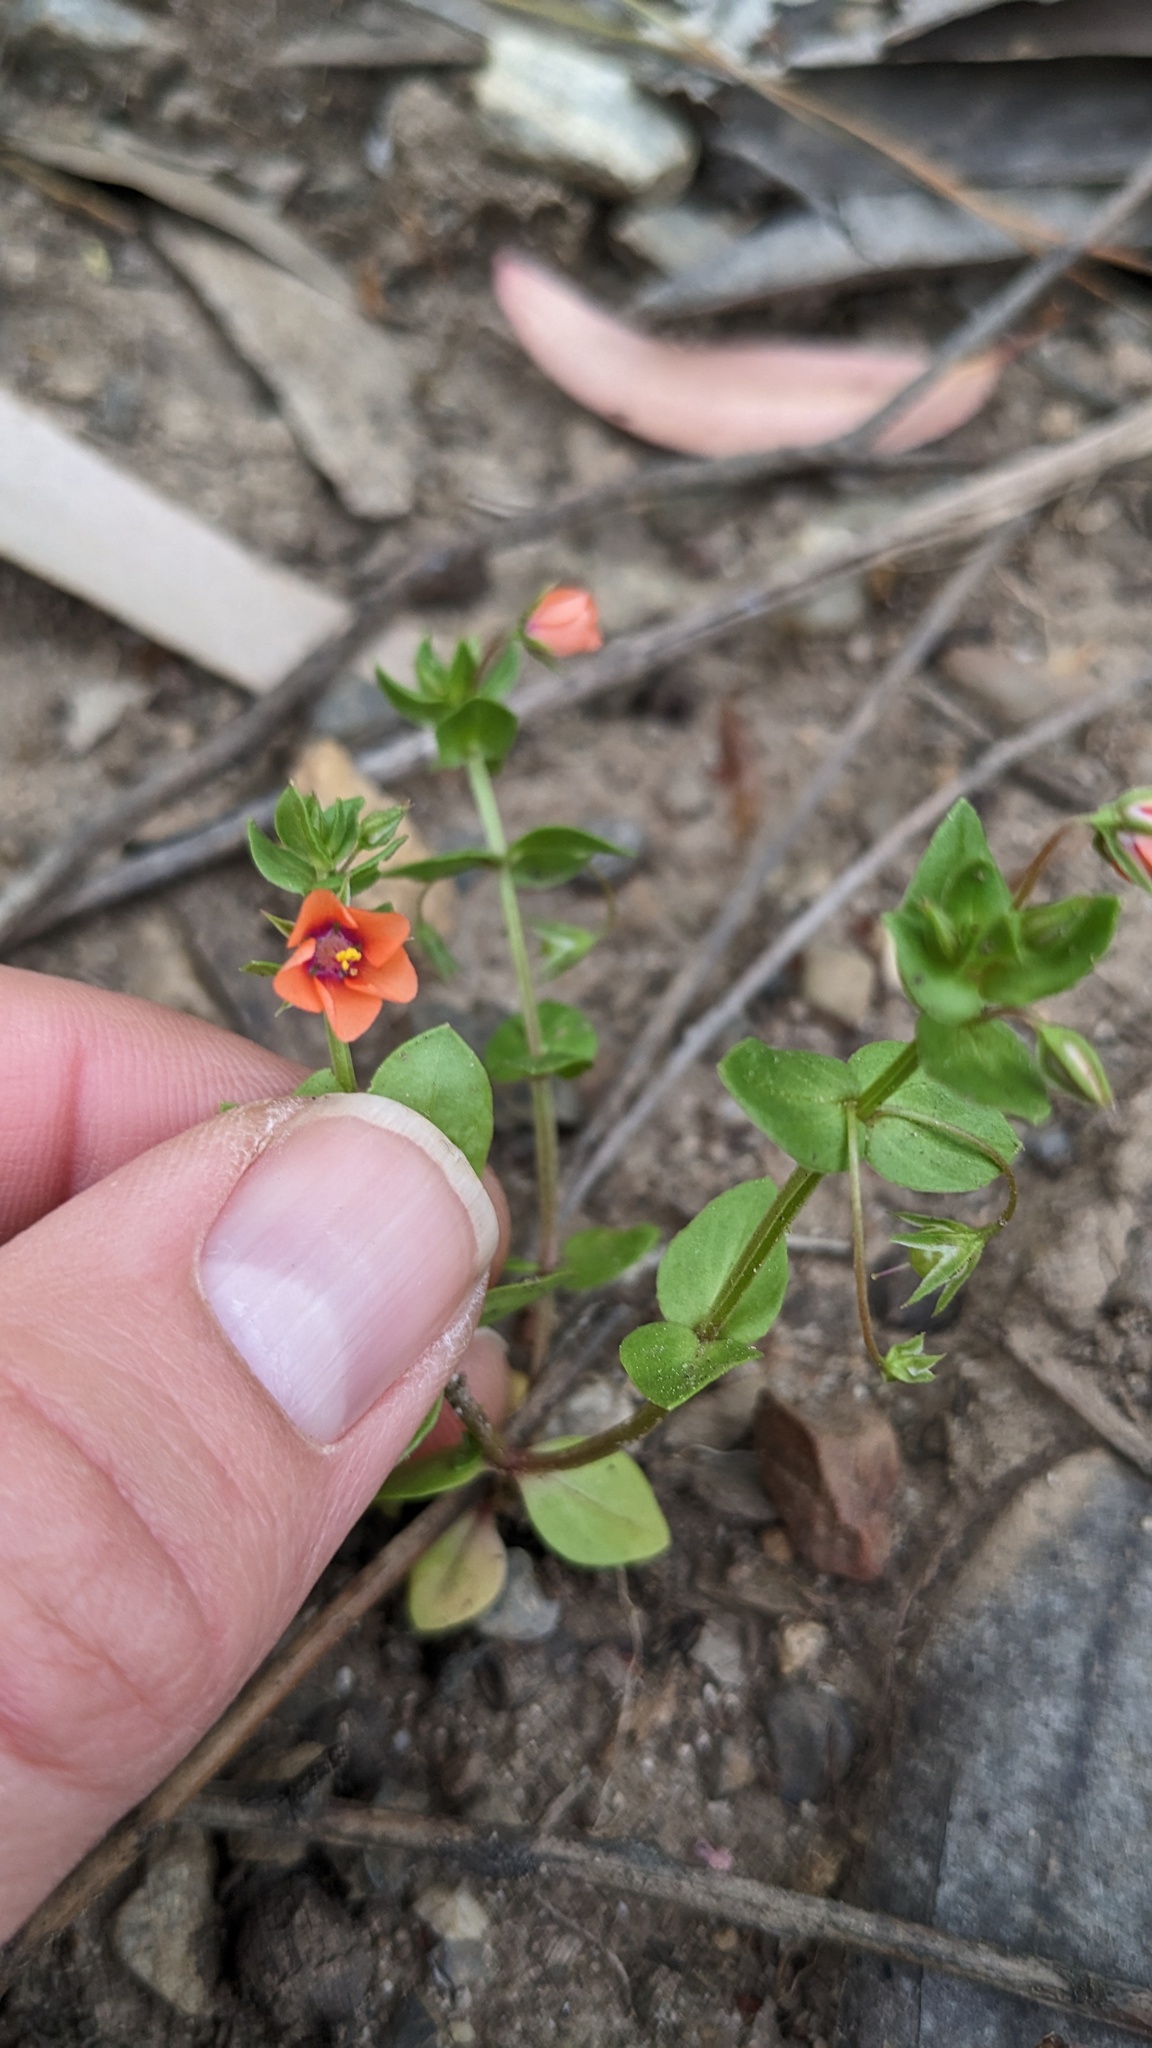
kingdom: Plantae
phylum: Tracheophyta
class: Magnoliopsida
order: Ericales
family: Primulaceae
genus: Lysimachia
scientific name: Lysimachia arvensis
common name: Scarlet pimpernel
